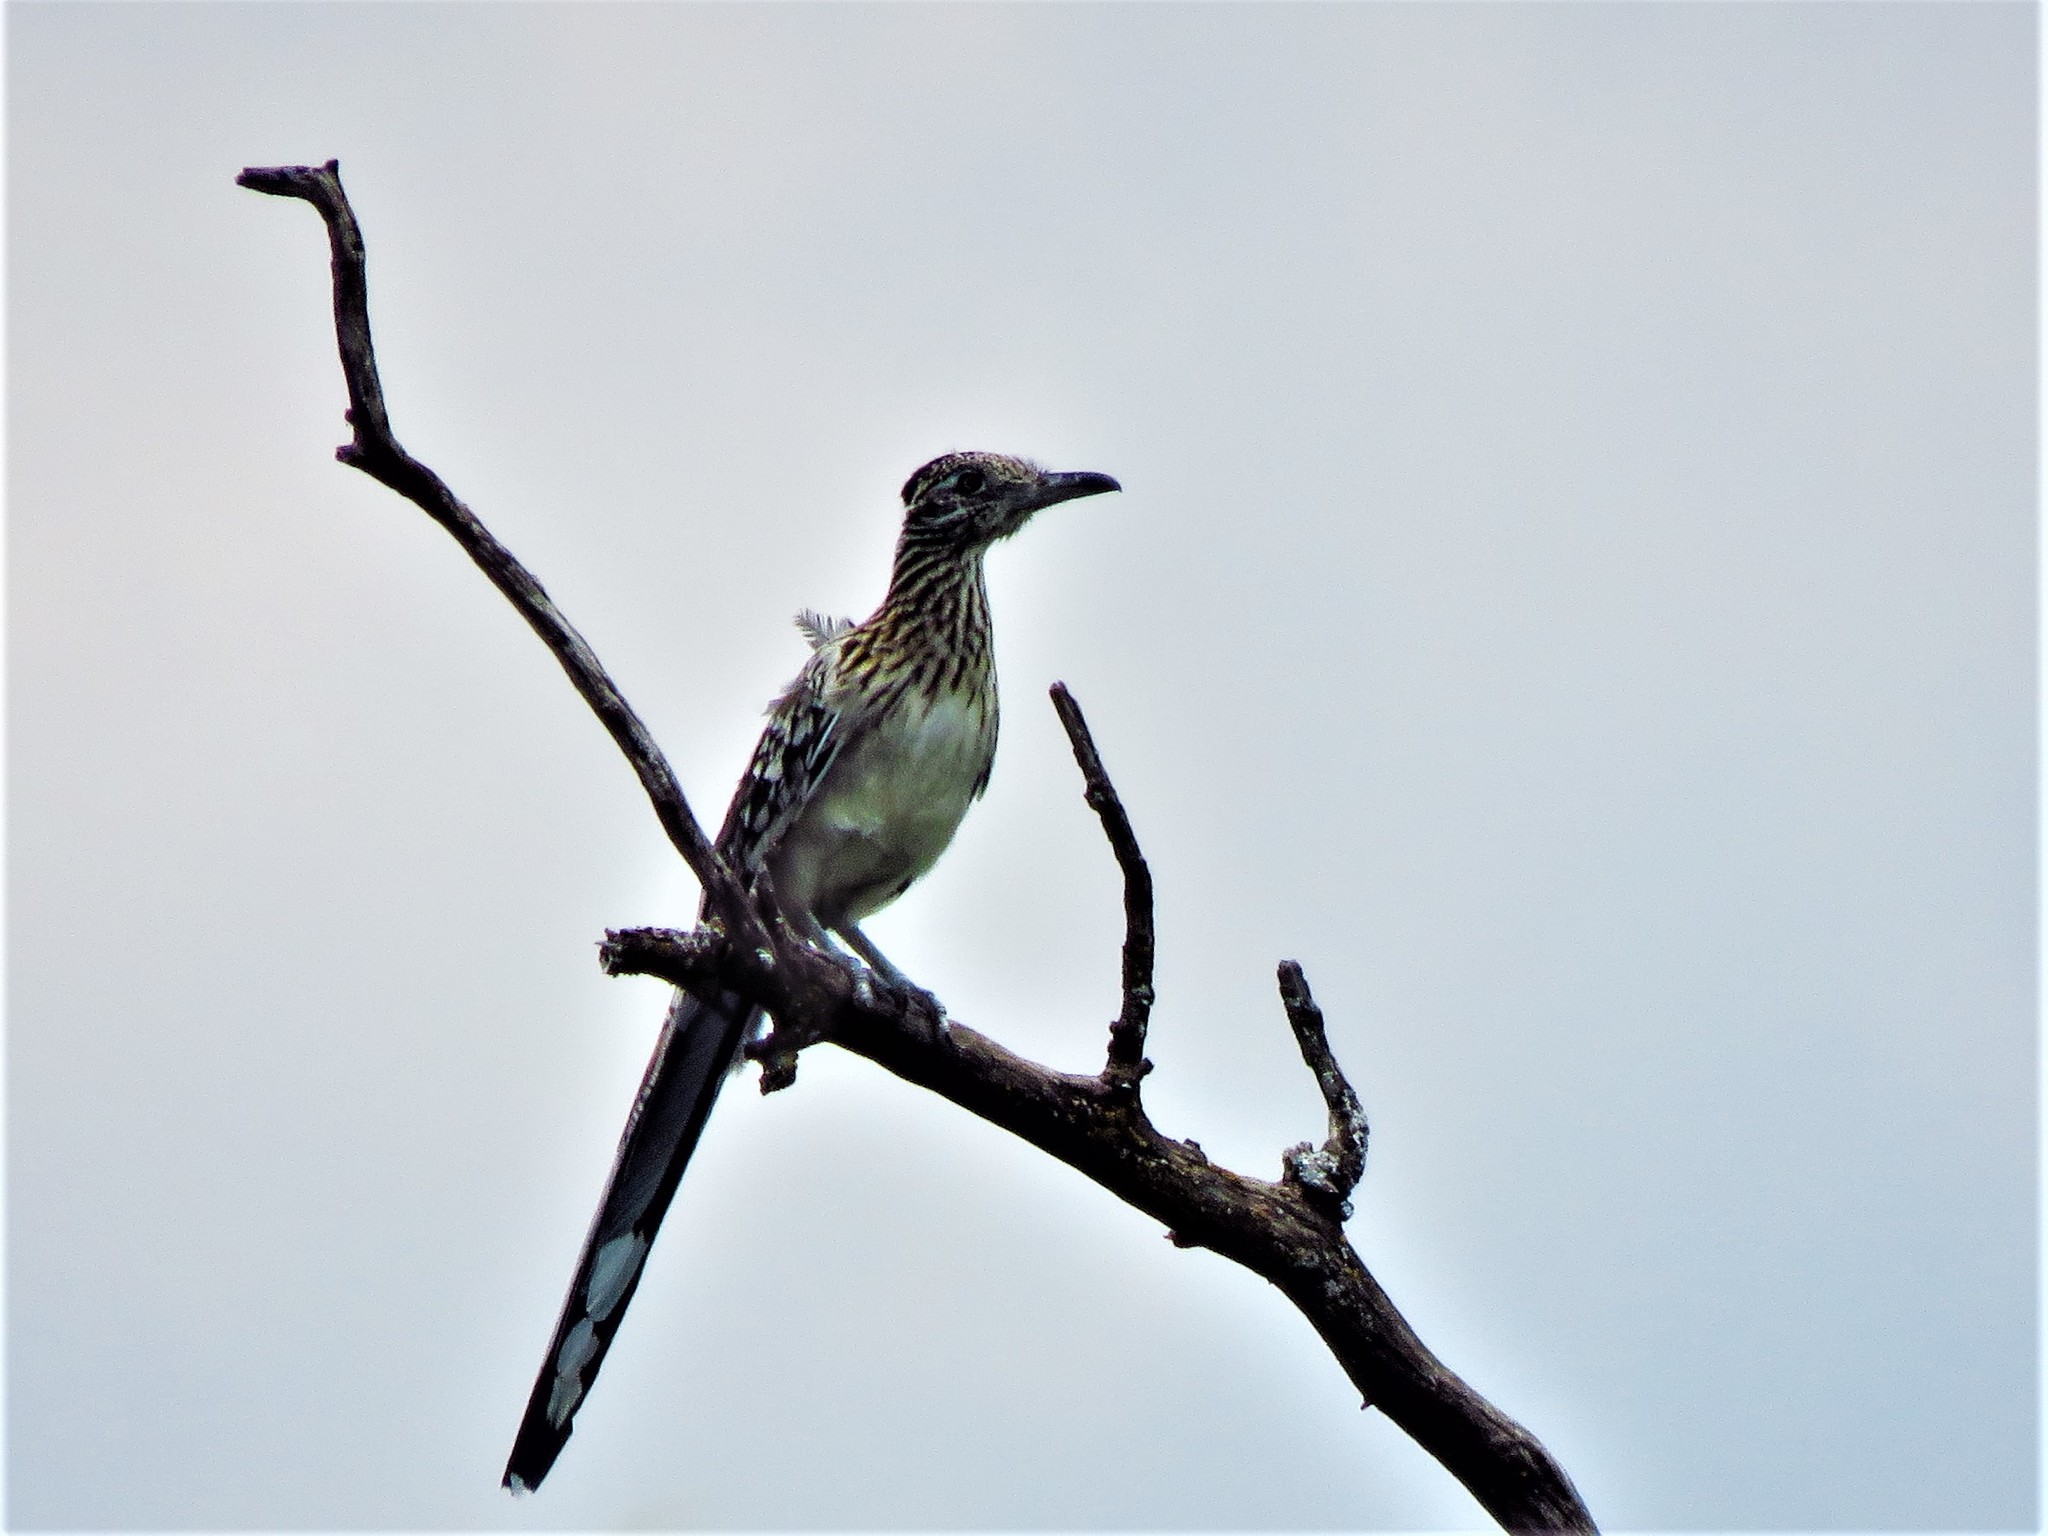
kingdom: Animalia
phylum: Chordata
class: Aves
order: Cuculiformes
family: Cuculidae
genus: Geococcyx
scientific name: Geococcyx californianus
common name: Greater roadrunner
